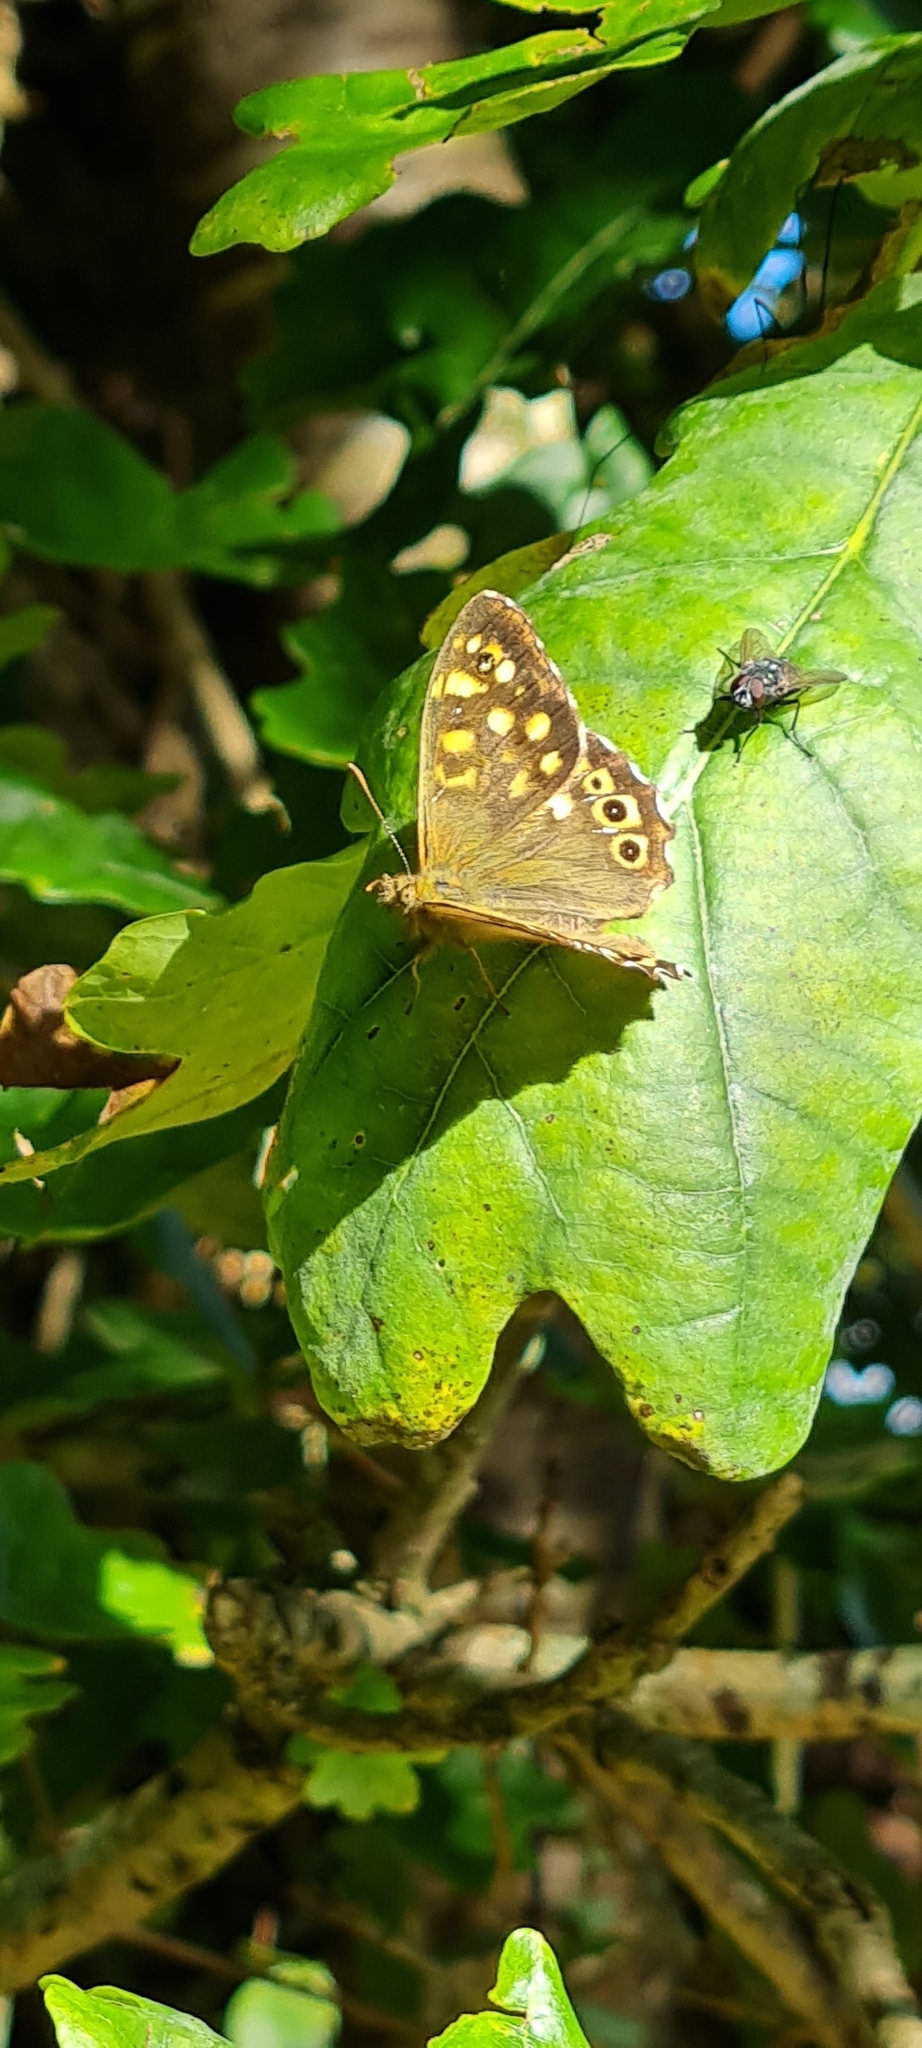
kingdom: Animalia
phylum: Arthropoda
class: Insecta
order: Lepidoptera
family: Nymphalidae
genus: Pararge
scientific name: Pararge aegeria
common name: Speckled wood
